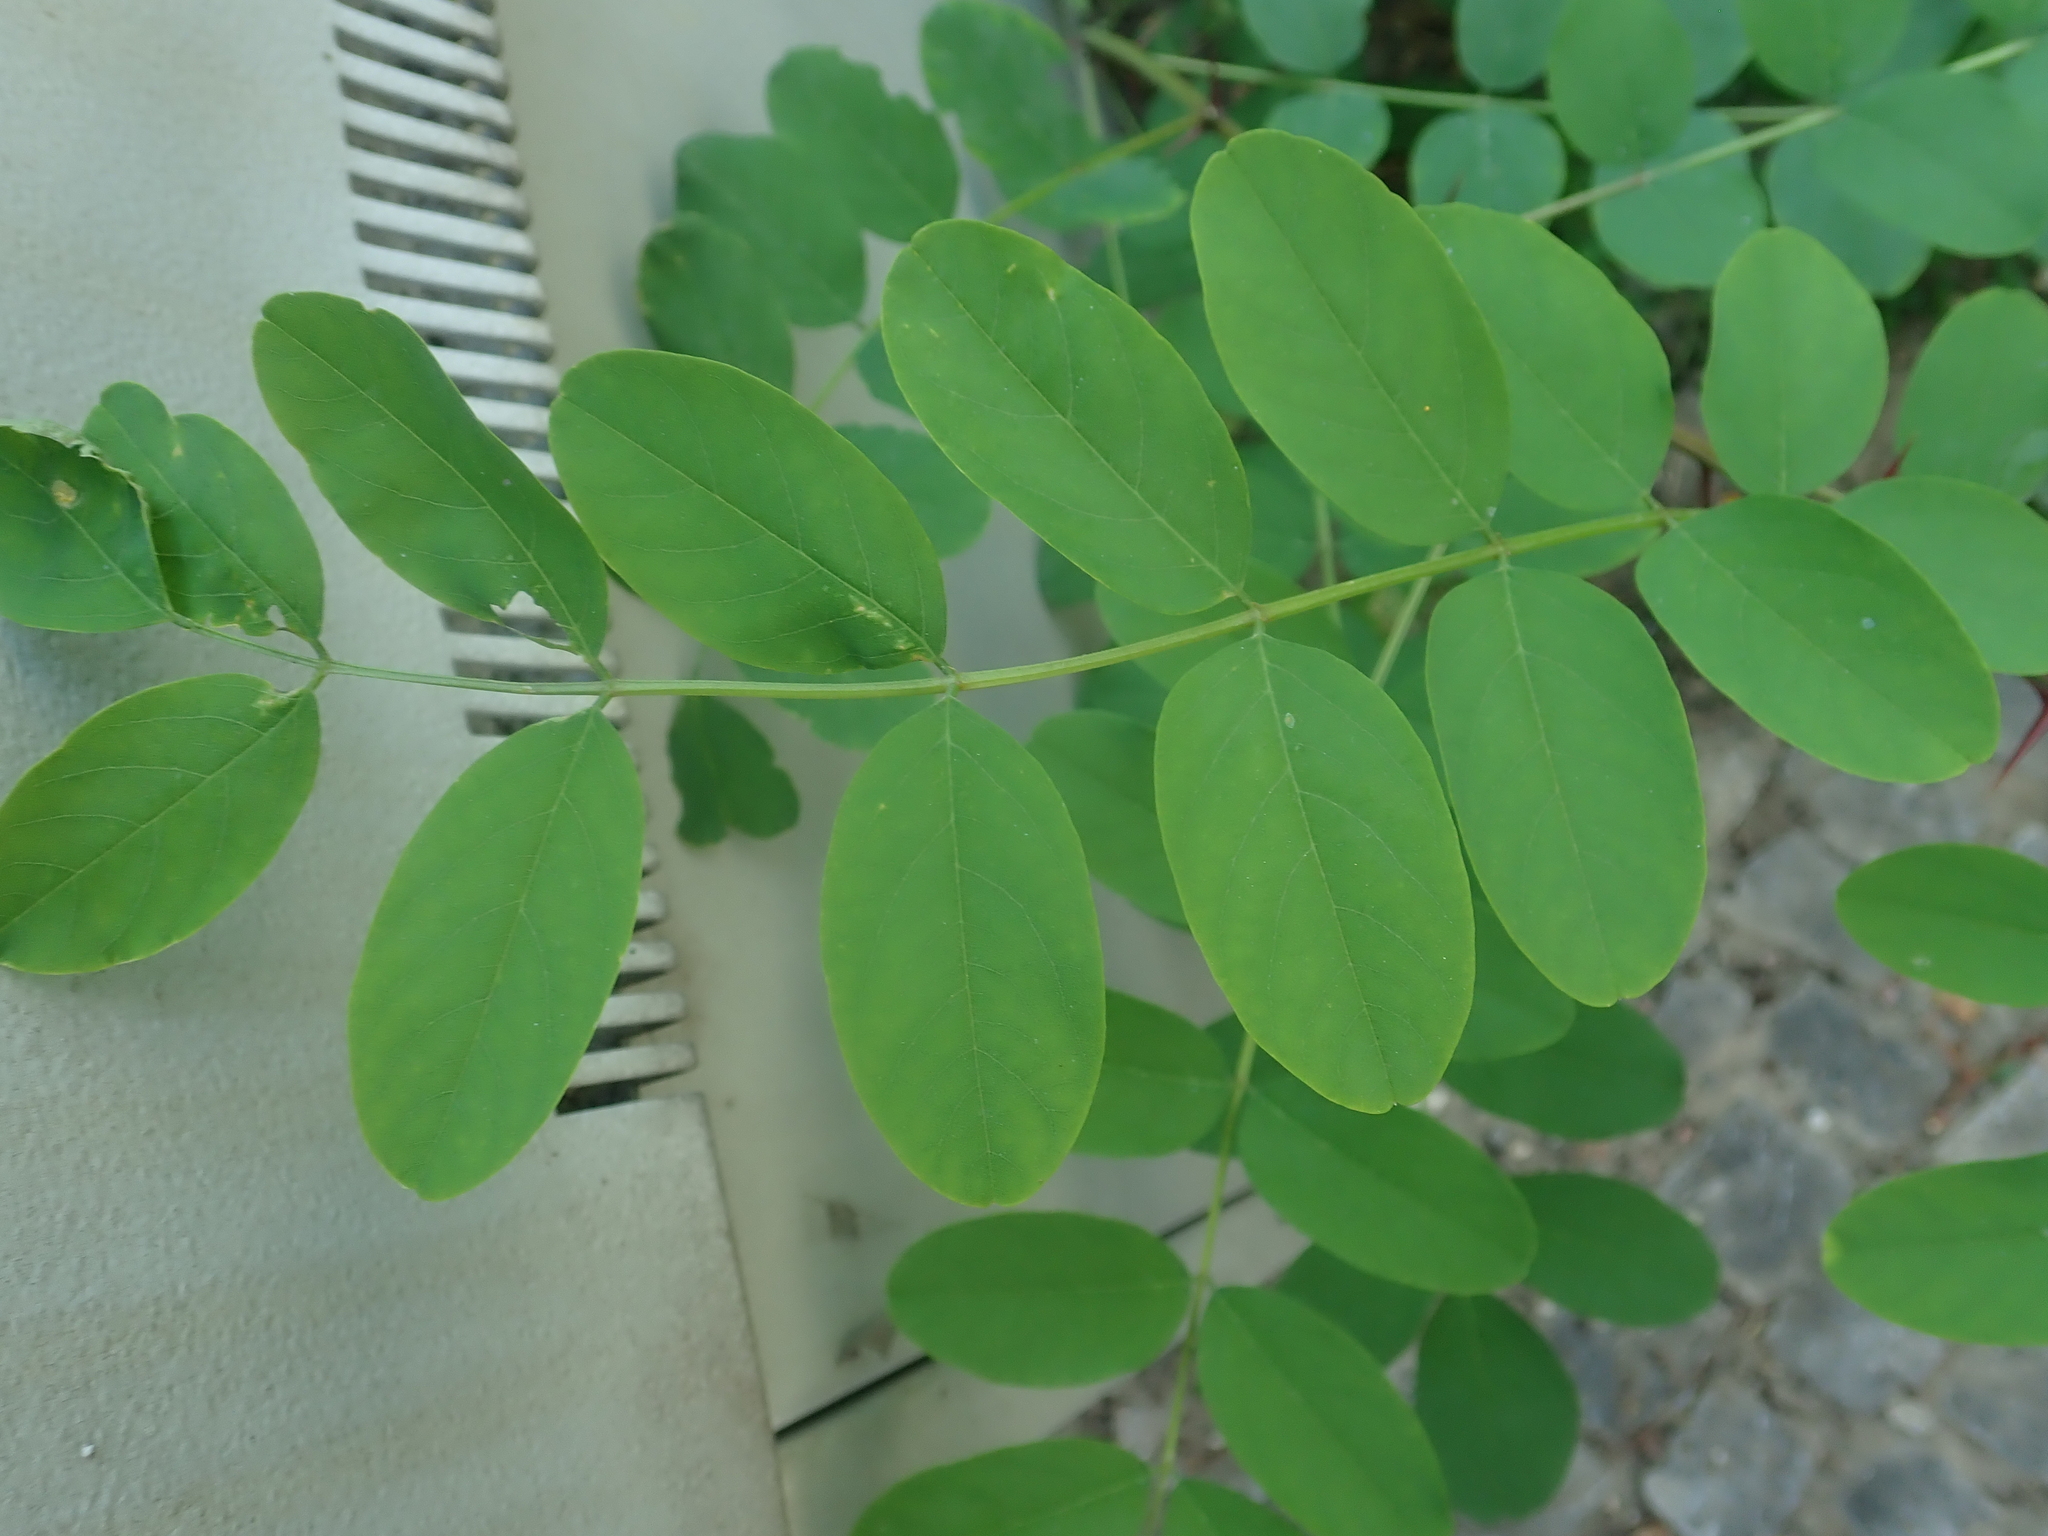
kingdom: Plantae
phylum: Tracheophyta
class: Magnoliopsida
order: Fabales
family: Fabaceae
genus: Robinia
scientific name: Robinia pseudoacacia
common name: Black locust
